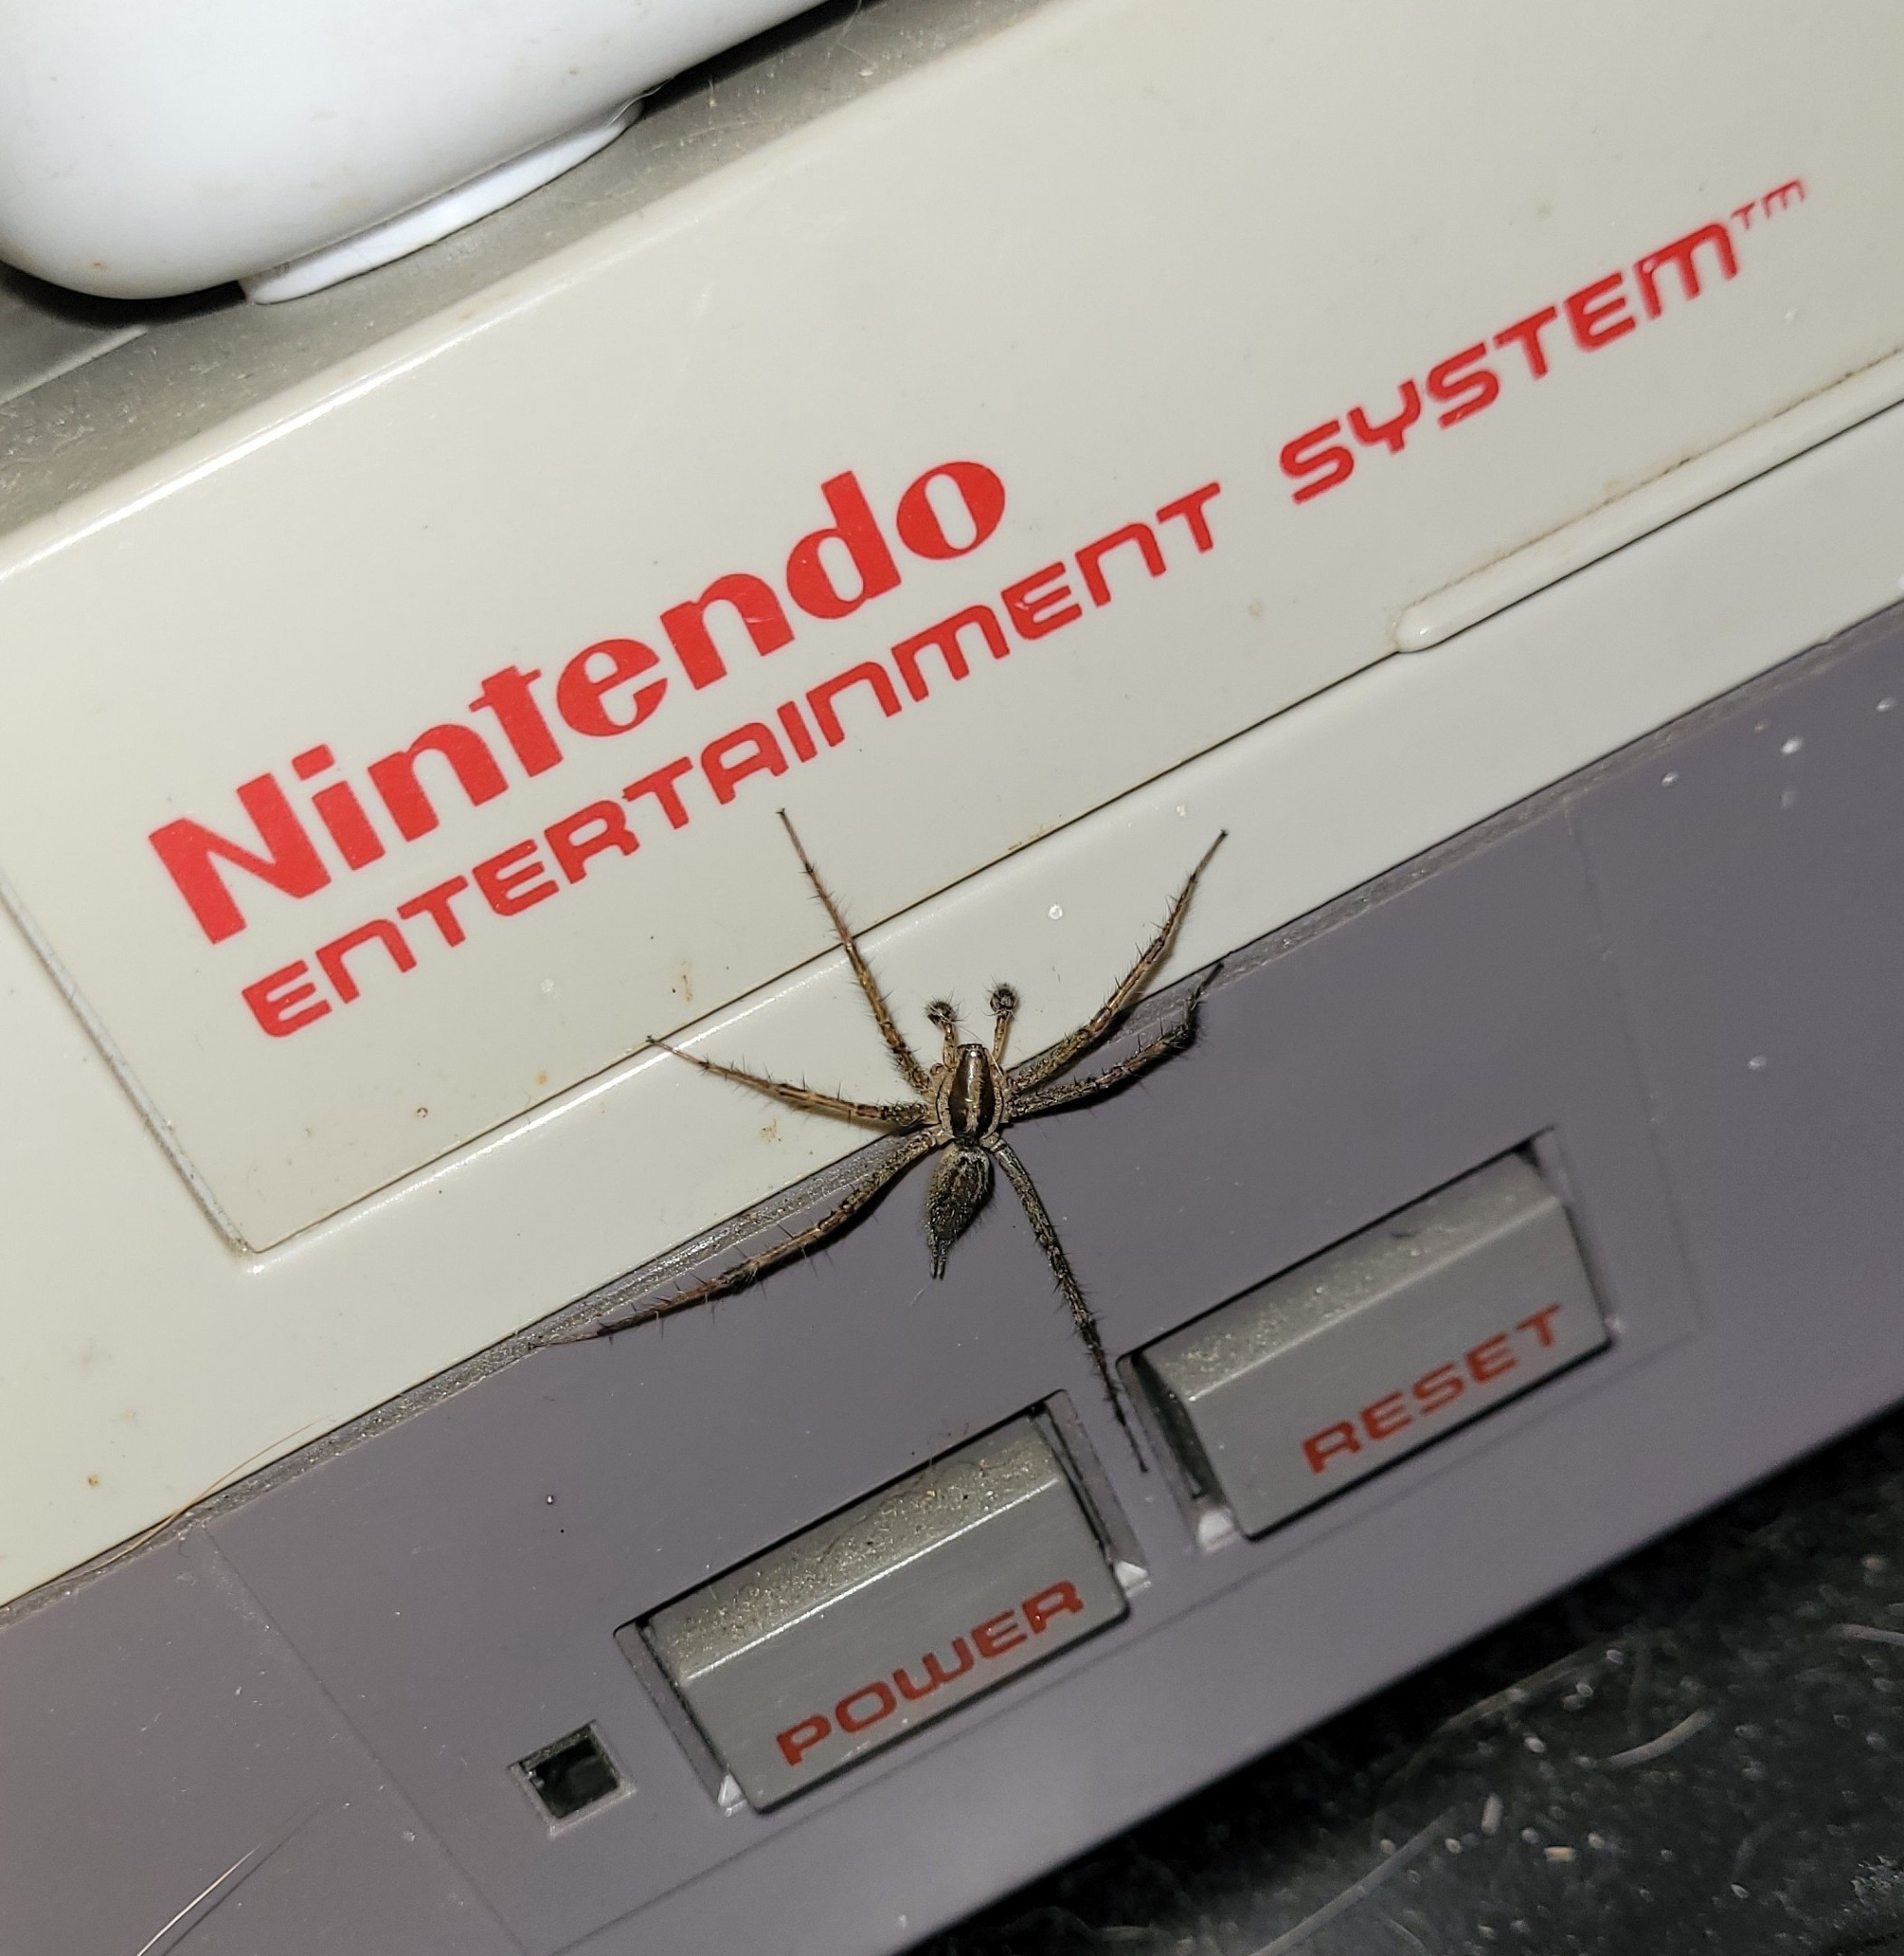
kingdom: Animalia
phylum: Arthropoda
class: Arachnida
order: Araneae
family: Agelenidae
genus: Agelenopsis
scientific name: Agelenopsis
